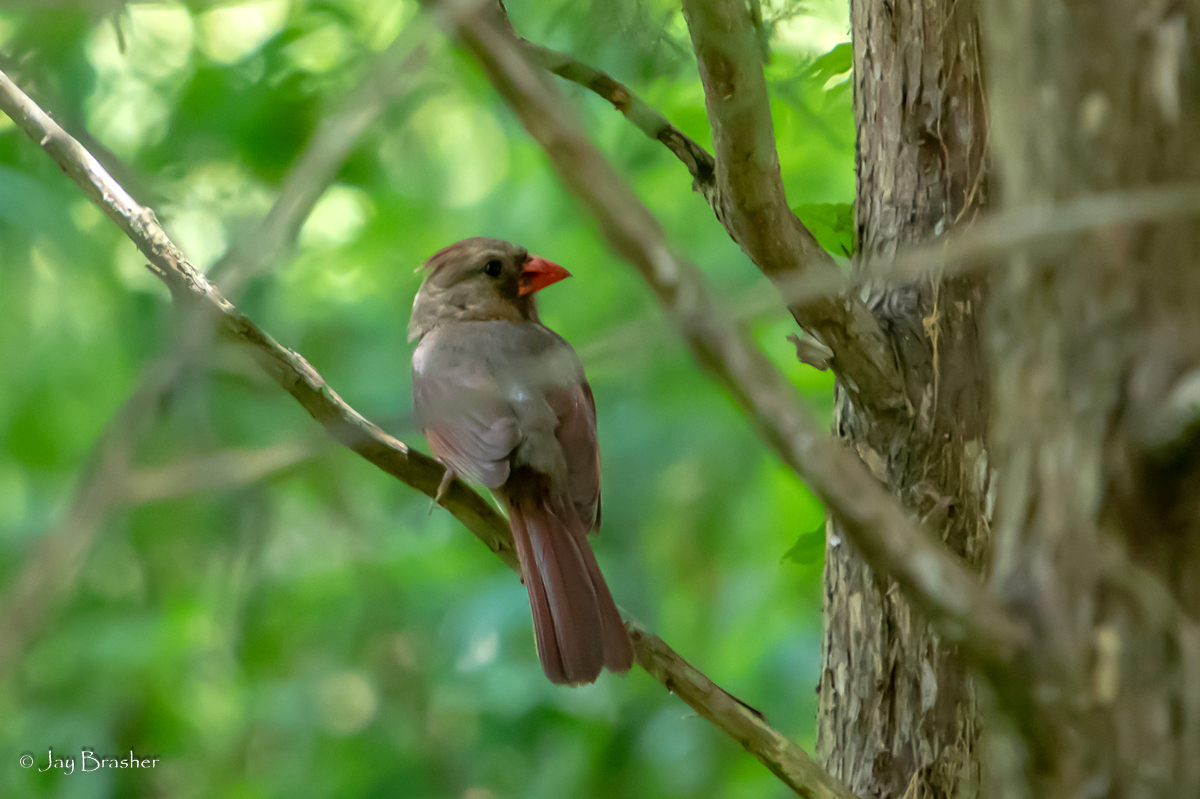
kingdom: Animalia
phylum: Chordata
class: Aves
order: Passeriformes
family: Cardinalidae
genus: Cardinalis
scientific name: Cardinalis cardinalis
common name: Northern cardinal
